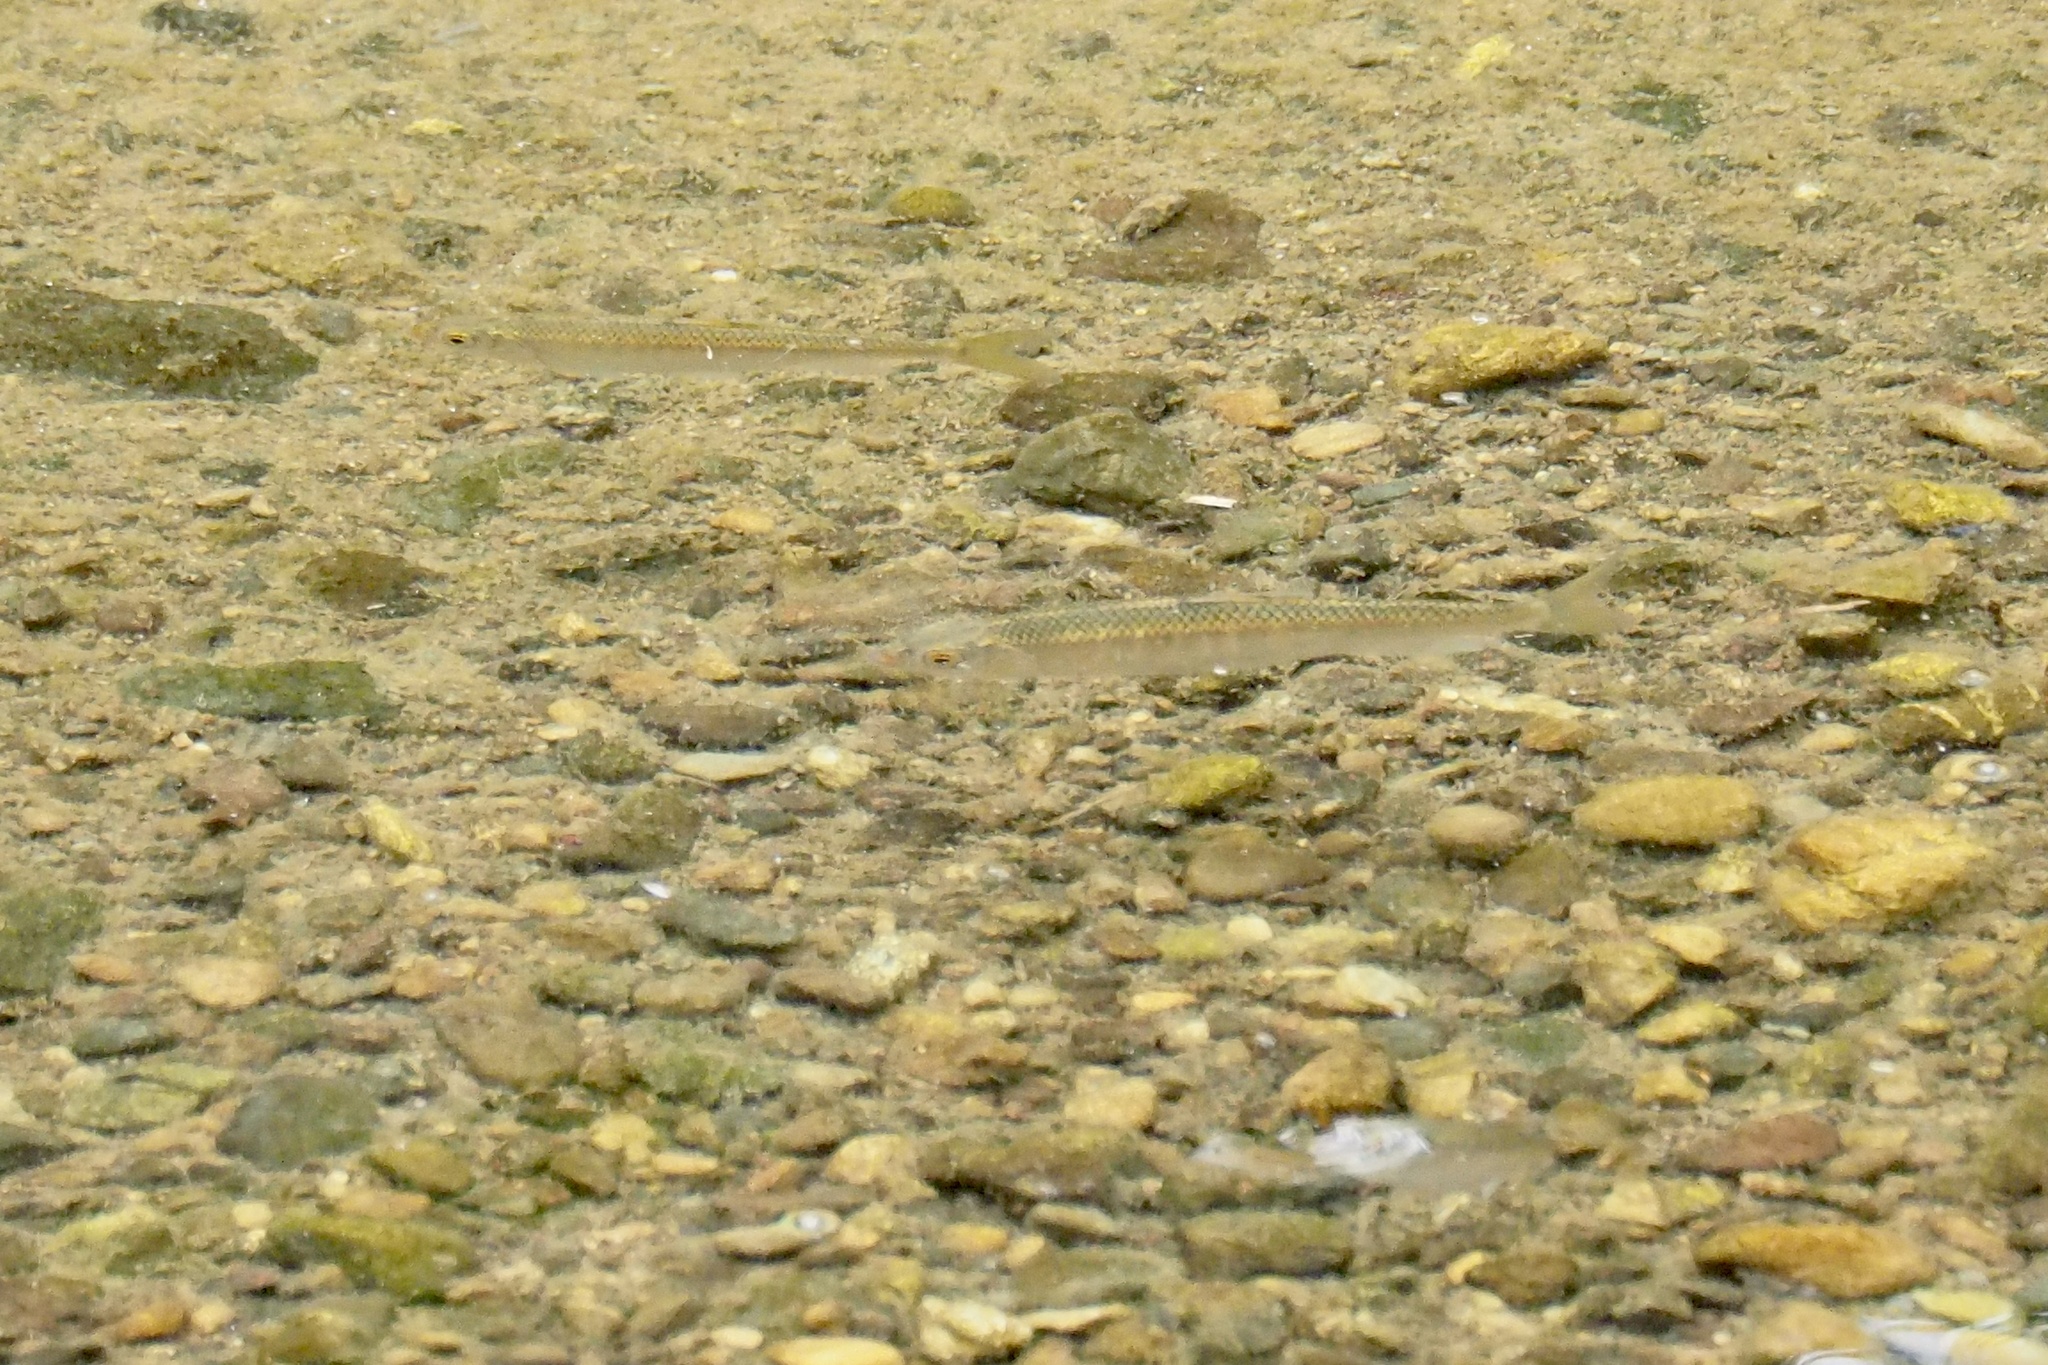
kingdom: Animalia
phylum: Chordata
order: Cypriniformes
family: Cyprinidae
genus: Zacco
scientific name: Zacco platypus
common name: Freshwater minnow
